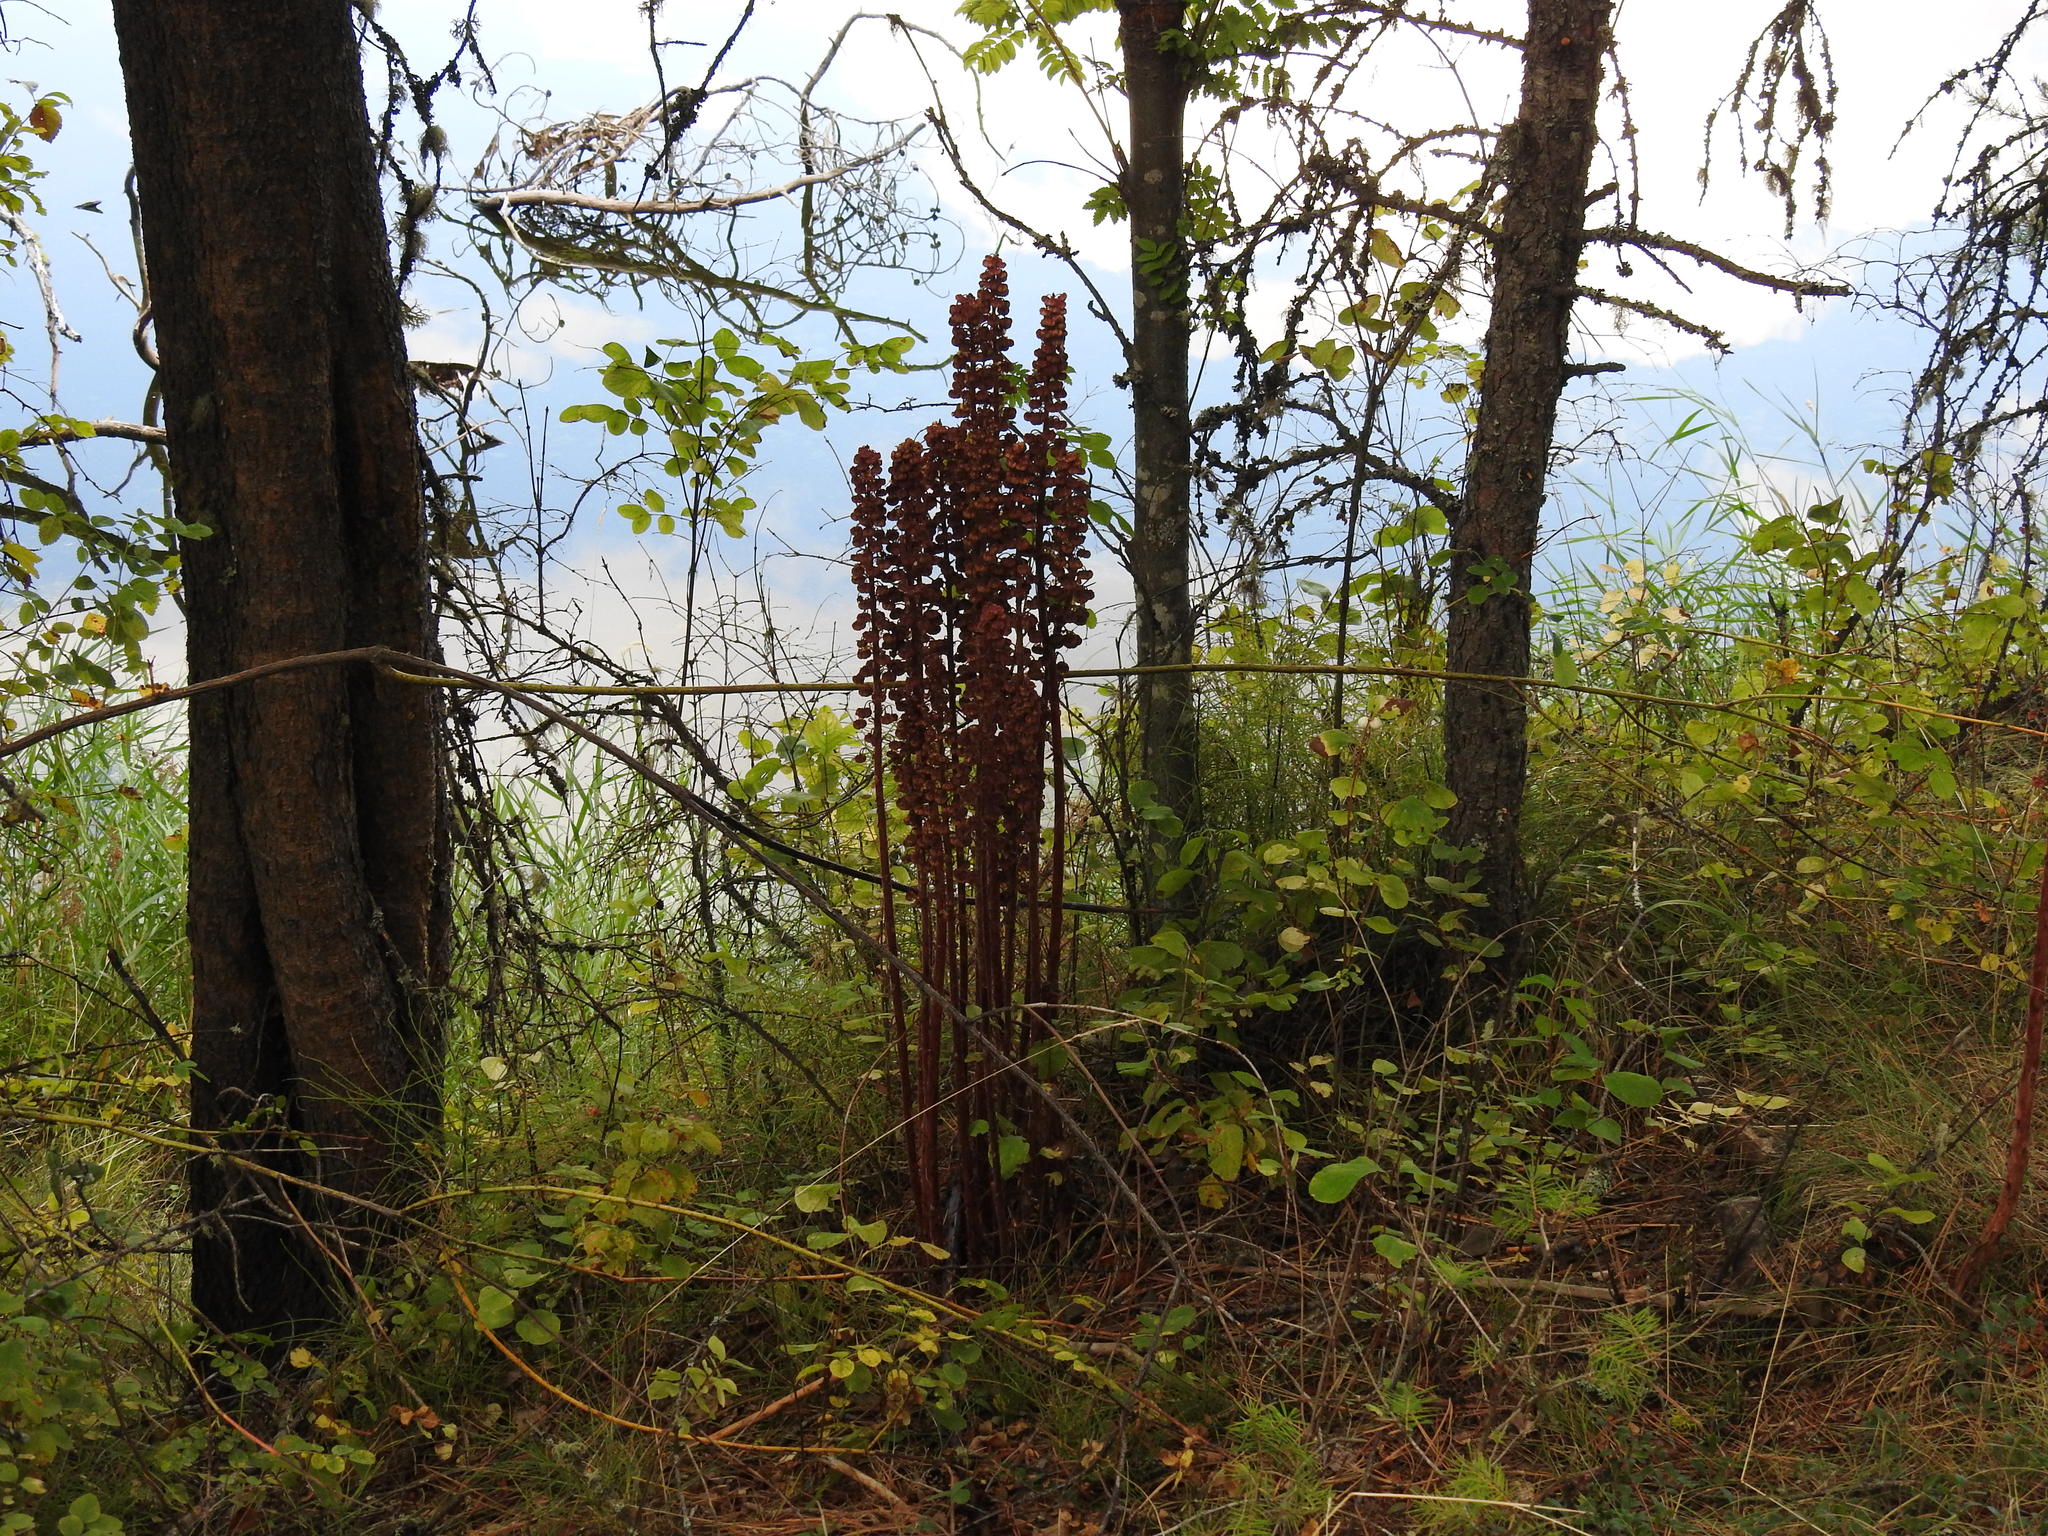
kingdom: Plantae
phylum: Tracheophyta
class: Magnoliopsida
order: Ericales
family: Ericaceae
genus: Pterospora
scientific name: Pterospora andromedea
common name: Giant bird's-nest
